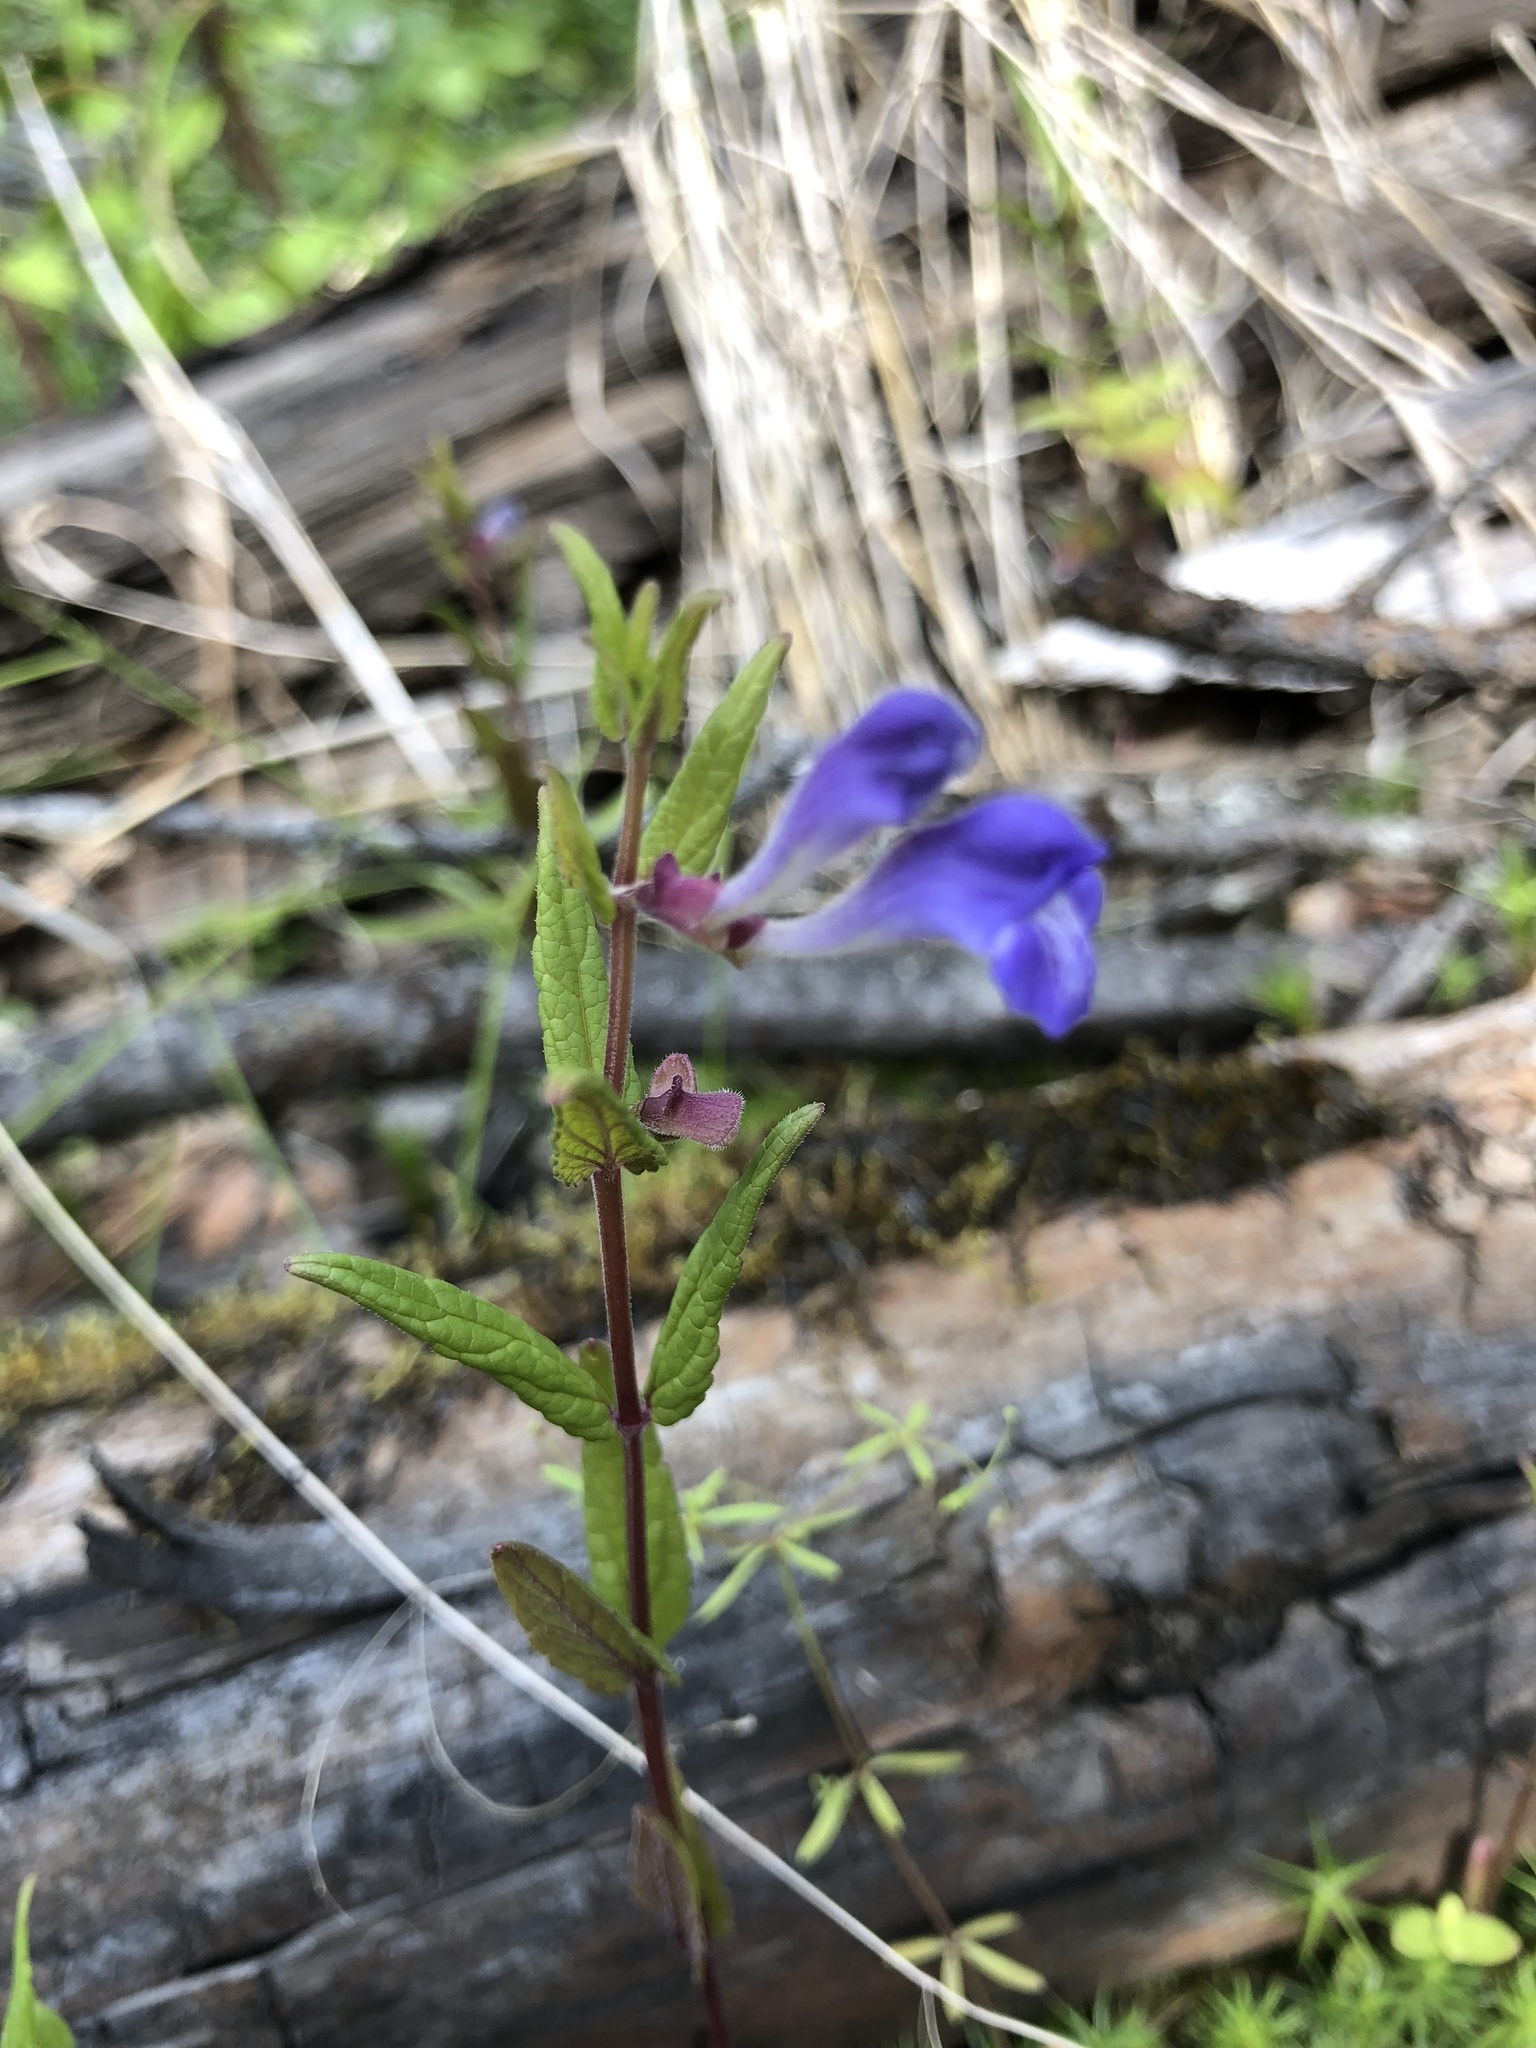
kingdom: Plantae
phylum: Tracheophyta
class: Magnoliopsida
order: Lamiales
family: Lamiaceae
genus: Scutellaria
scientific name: Scutellaria galericulata
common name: Skullcap
